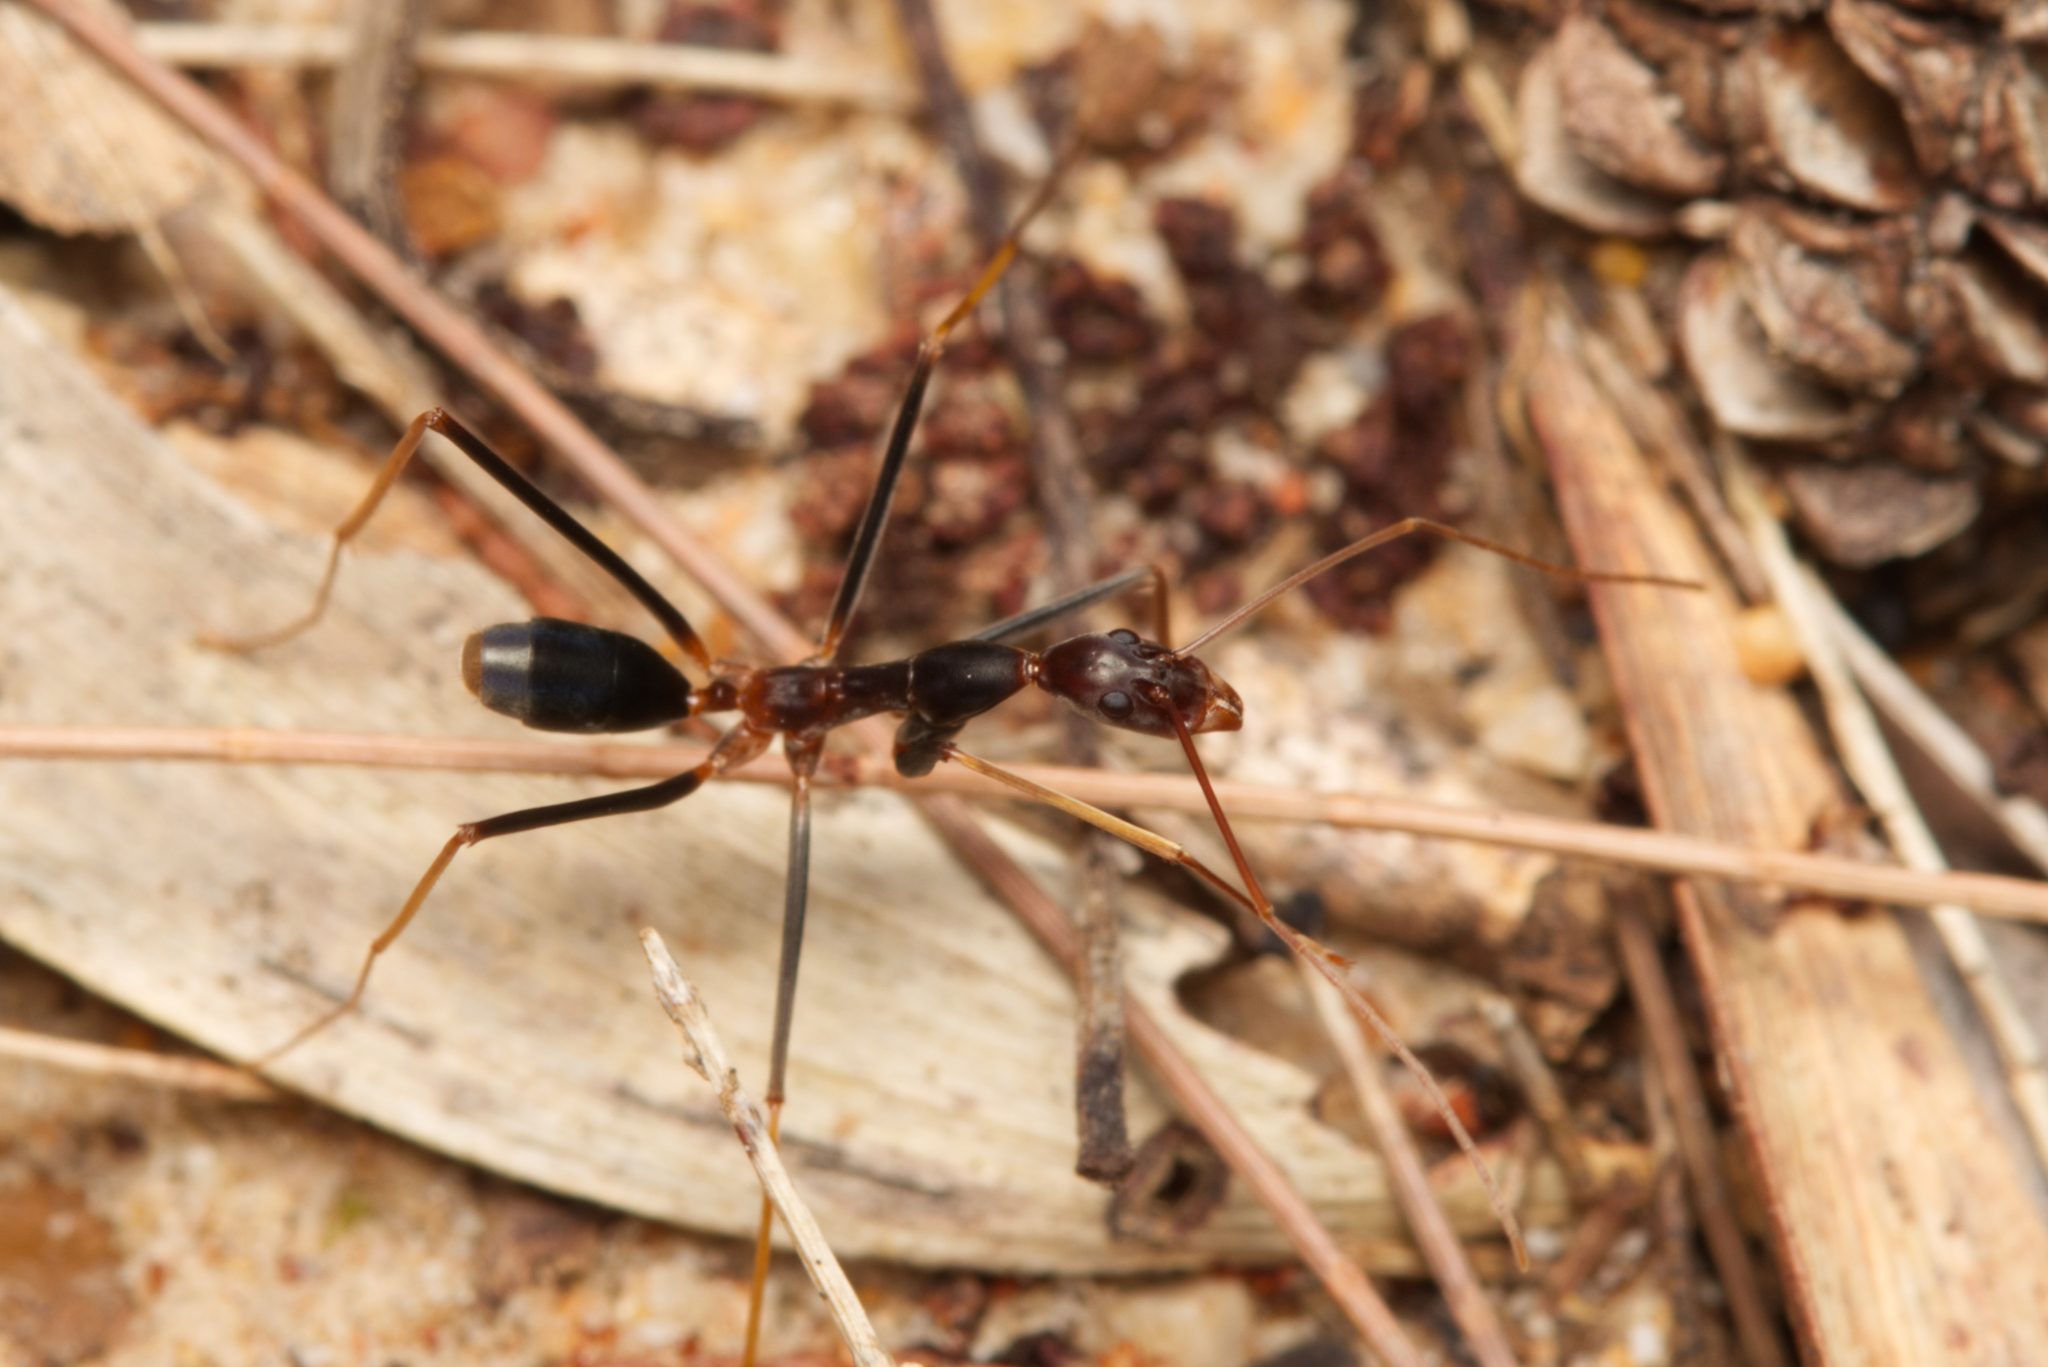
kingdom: Animalia
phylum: Arthropoda
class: Insecta
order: Hymenoptera
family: Formicidae
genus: Leptomyrmex
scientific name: Leptomyrmex rothneyi
